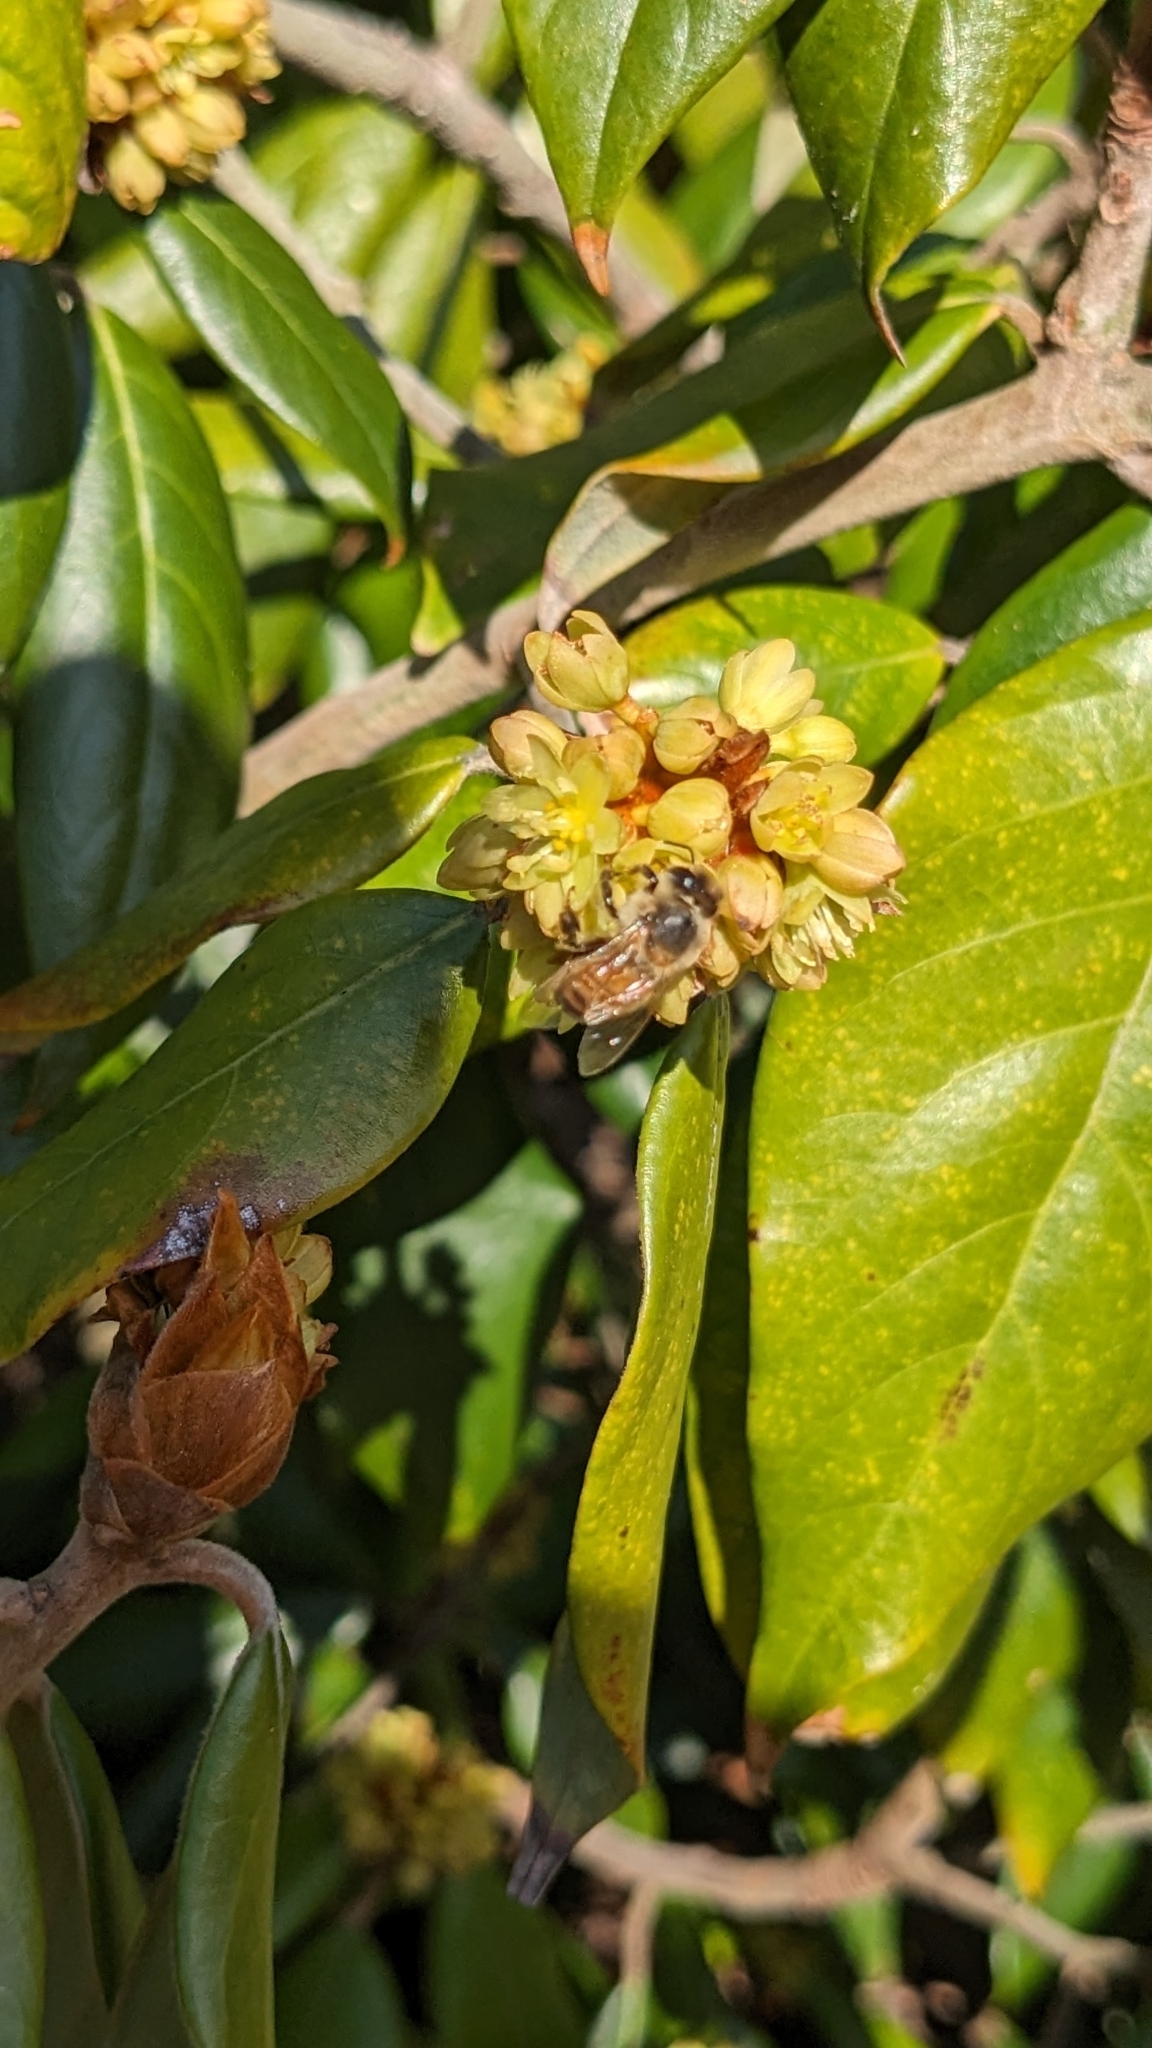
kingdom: Animalia
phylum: Arthropoda
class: Insecta
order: Hymenoptera
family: Apidae
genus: Apis
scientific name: Apis mellifera
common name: Honey bee
